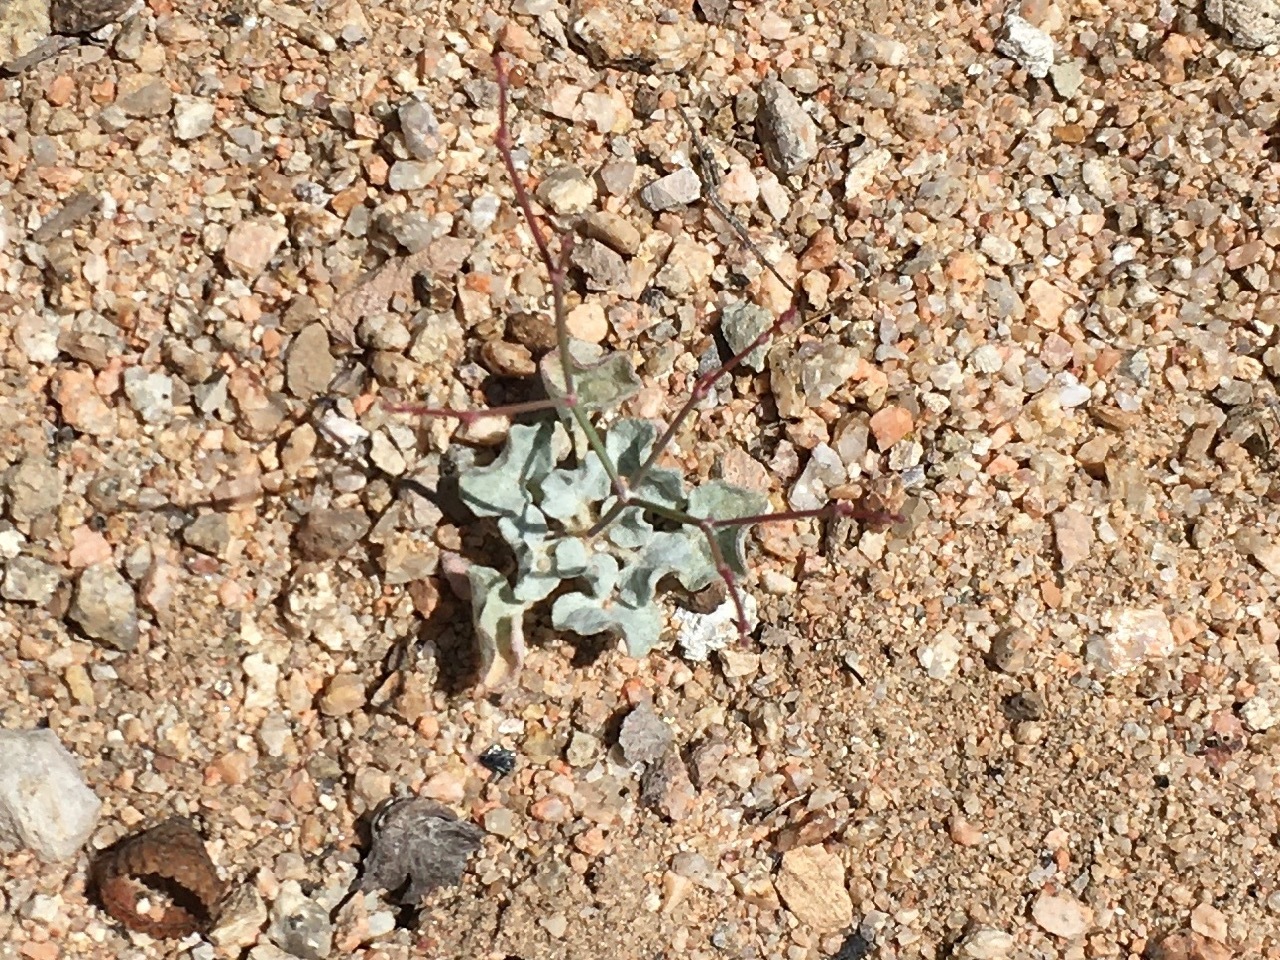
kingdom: Plantae
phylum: Tracheophyta
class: Magnoliopsida
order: Caryophyllales
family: Polygonaceae
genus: Eriogonum
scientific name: Eriogonum elegans
